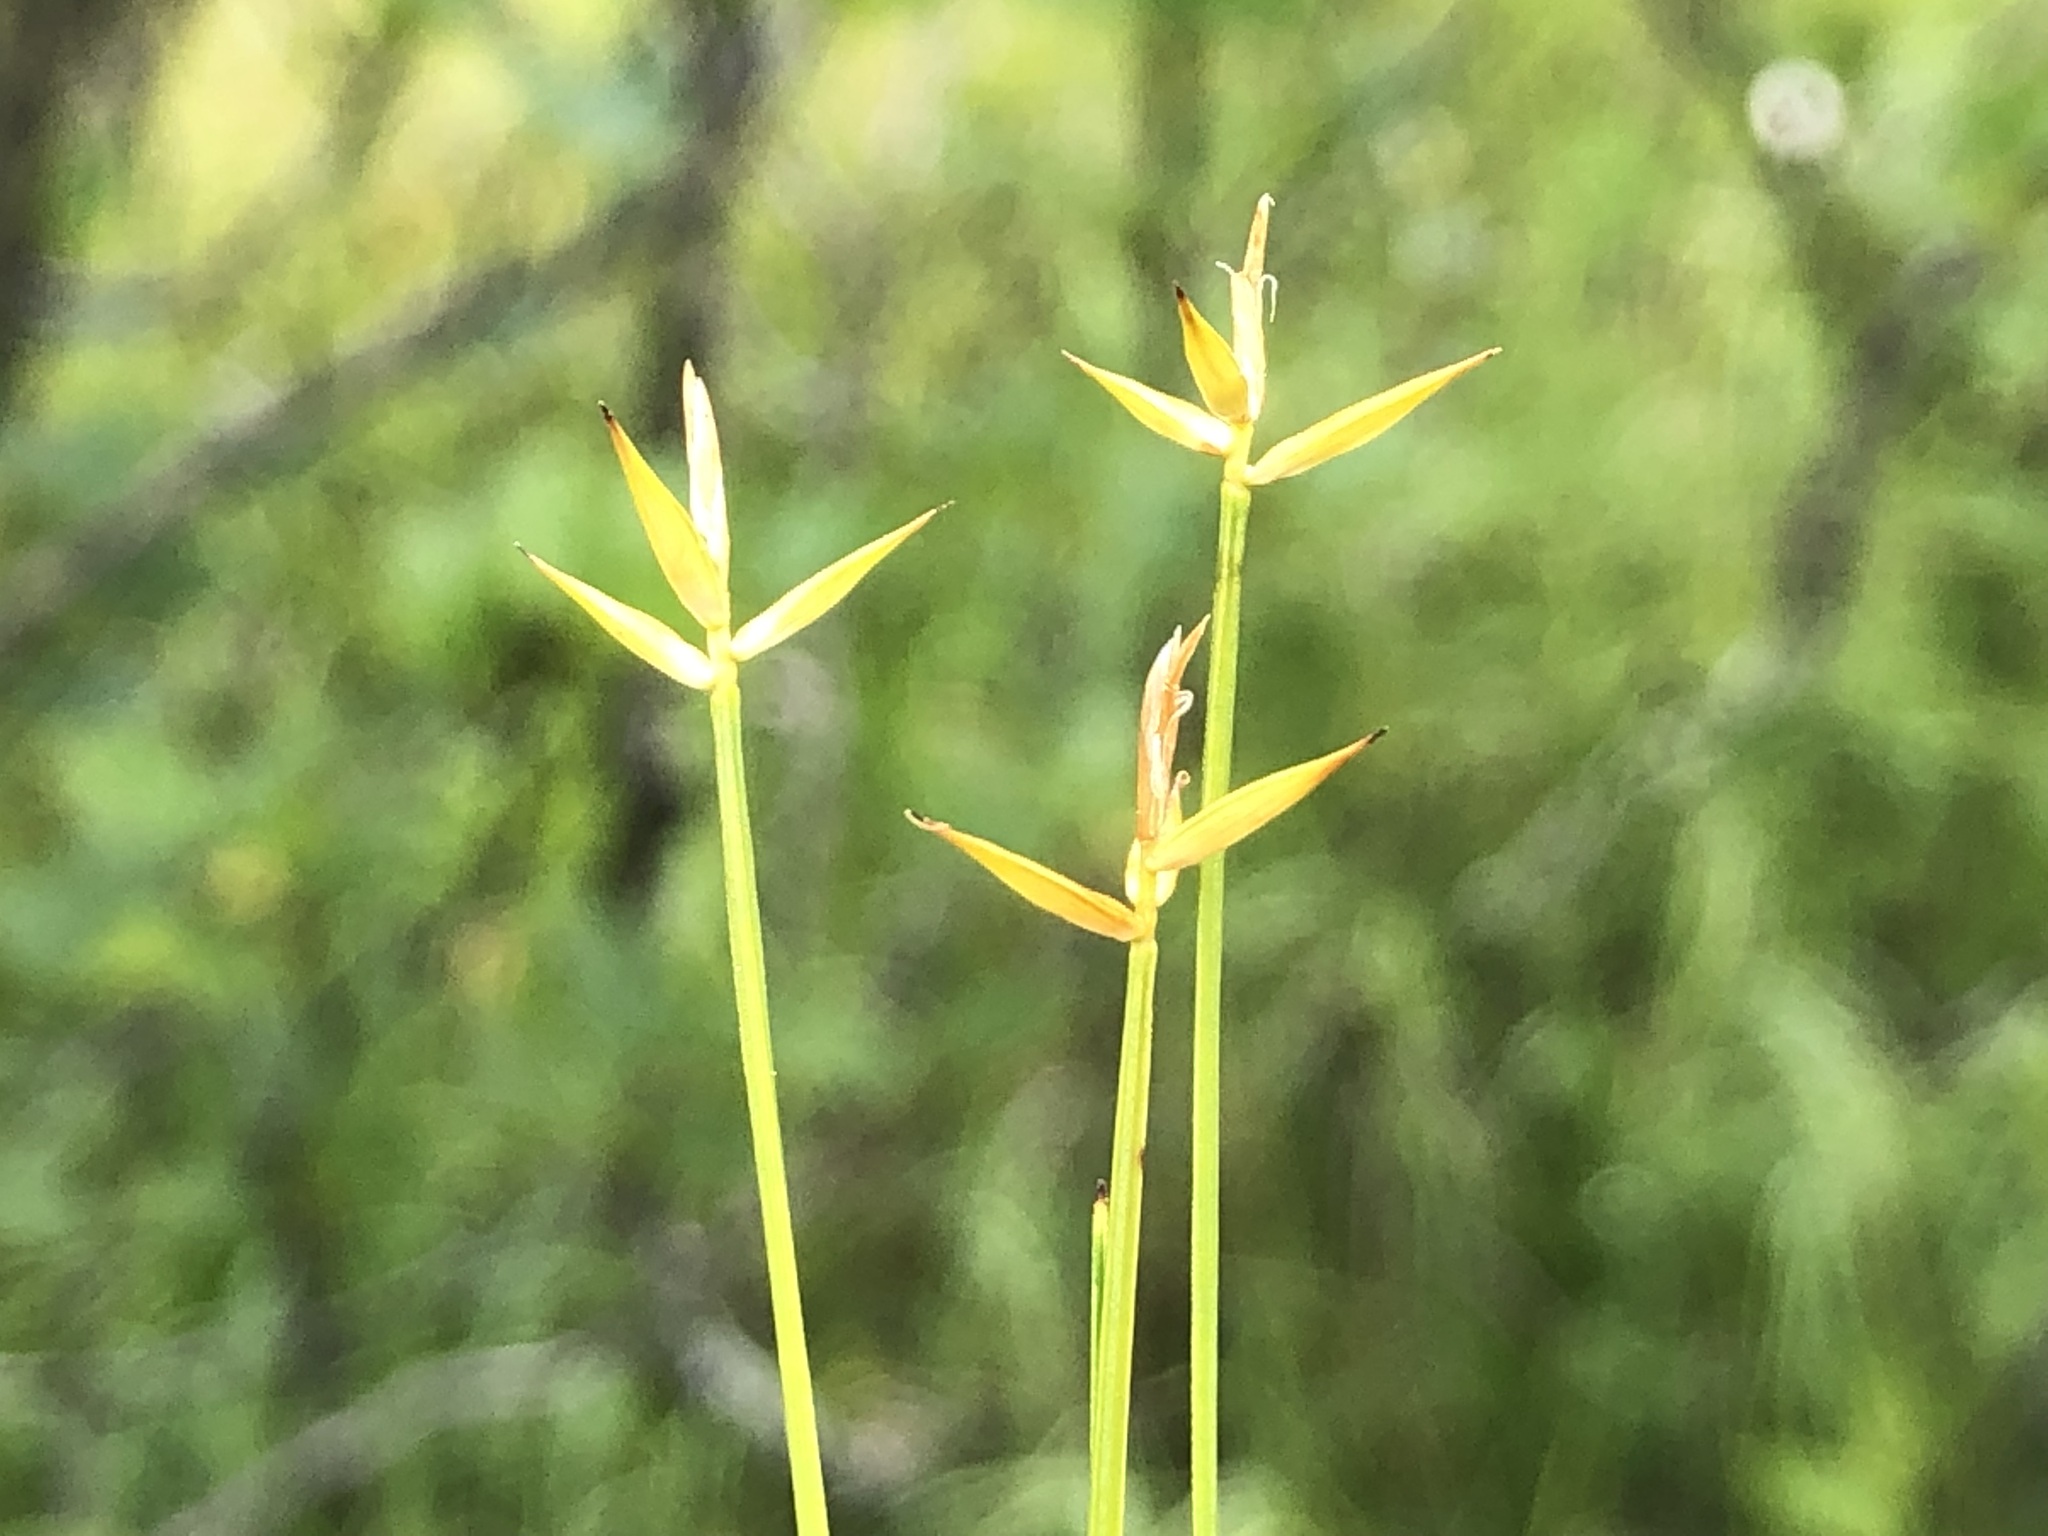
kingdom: Plantae
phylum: Tracheophyta
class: Liliopsida
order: Poales
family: Cyperaceae
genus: Carex
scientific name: Carex pauciflora
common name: Few-flowered sedge
